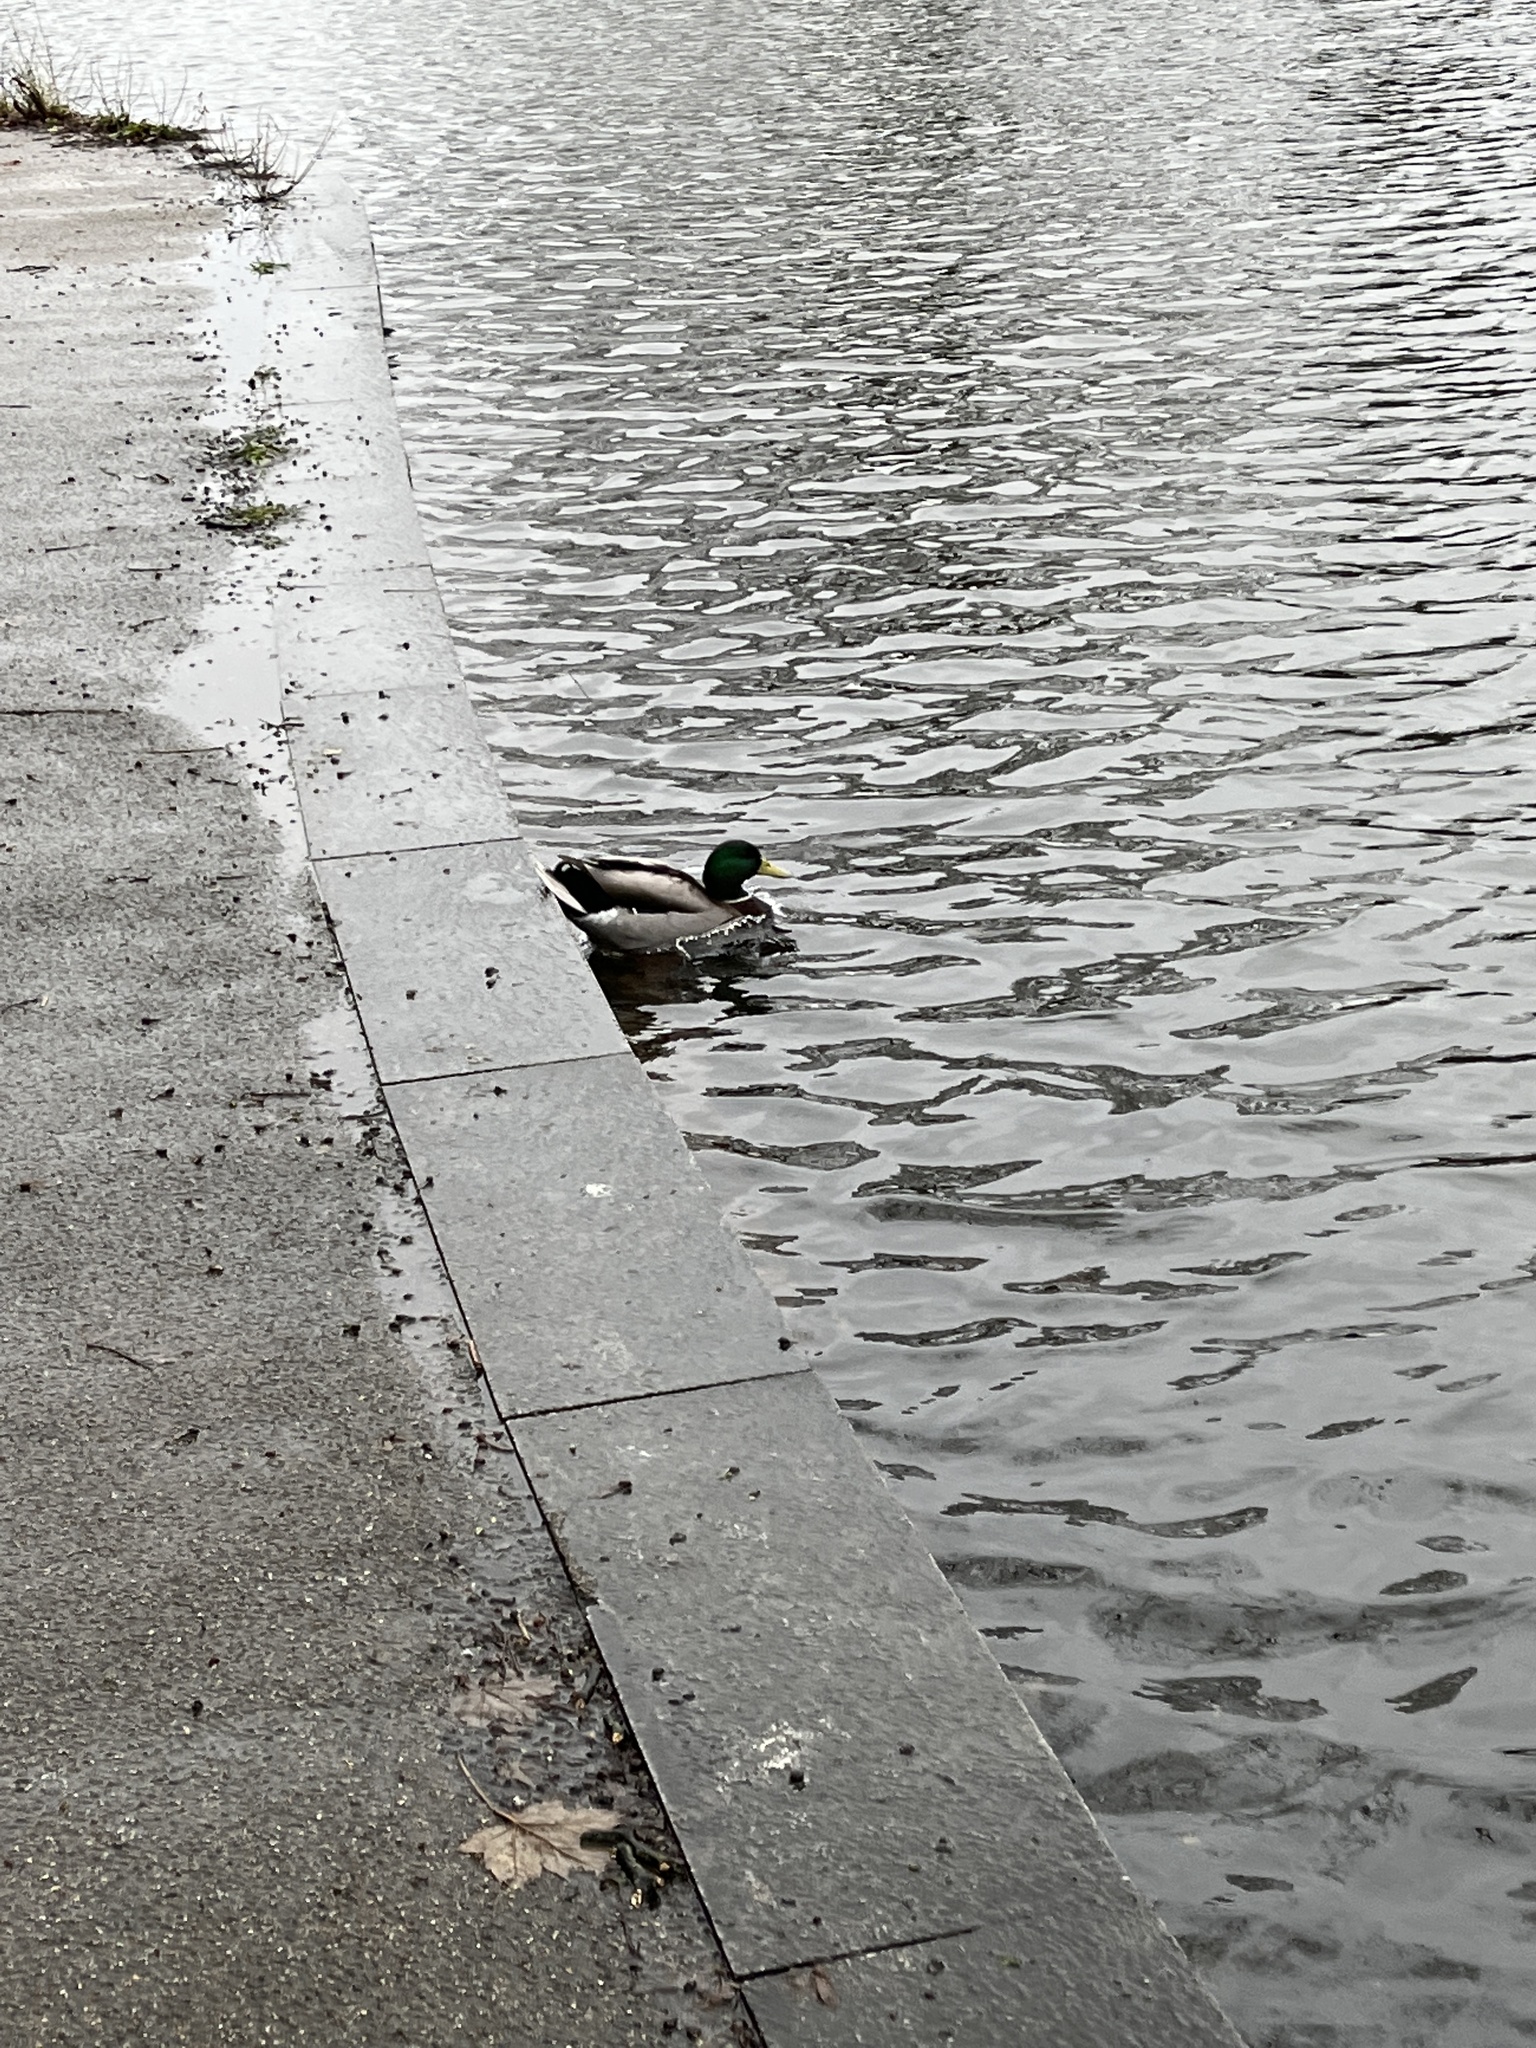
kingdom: Animalia
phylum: Chordata
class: Aves
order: Anseriformes
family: Anatidae
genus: Anas
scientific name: Anas platyrhynchos
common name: Mallard
